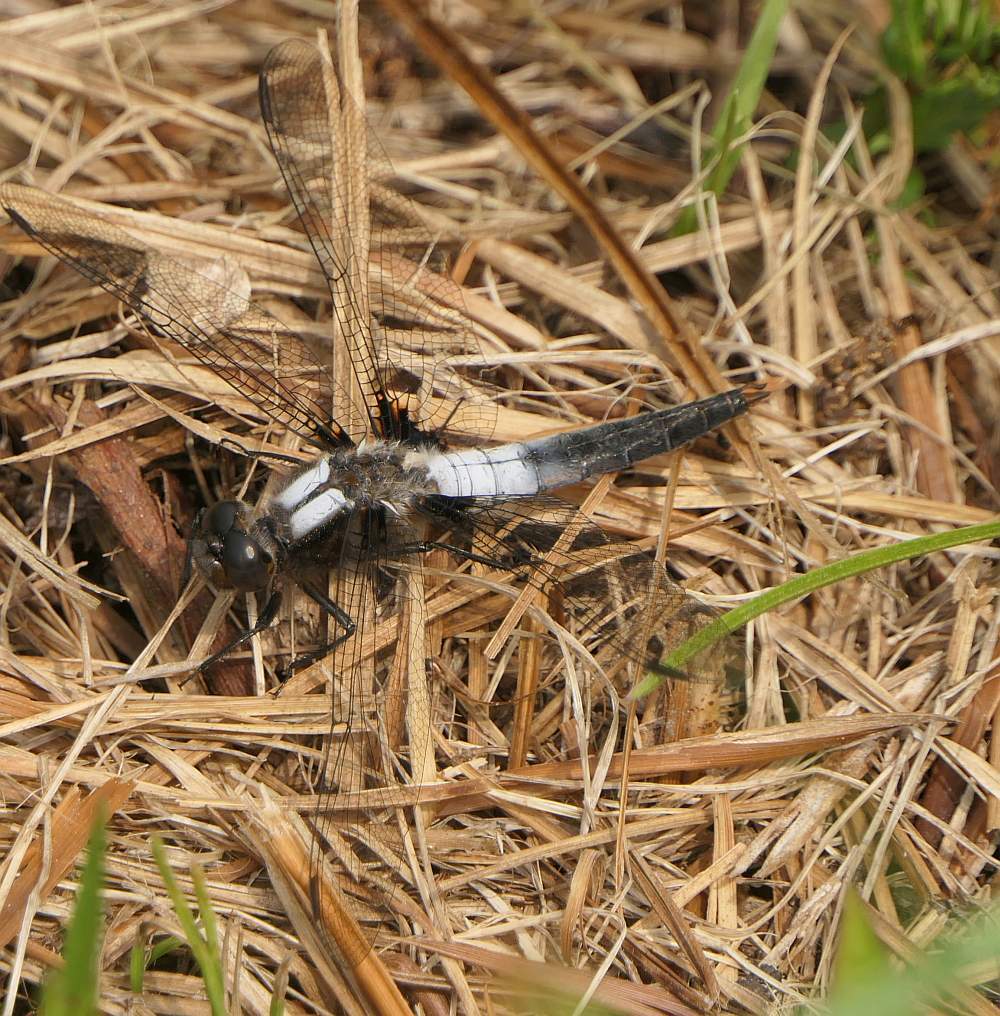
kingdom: Animalia
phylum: Arthropoda
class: Insecta
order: Odonata
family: Libellulidae
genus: Ladona
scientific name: Ladona julia
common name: Chalk-fronted corporal
